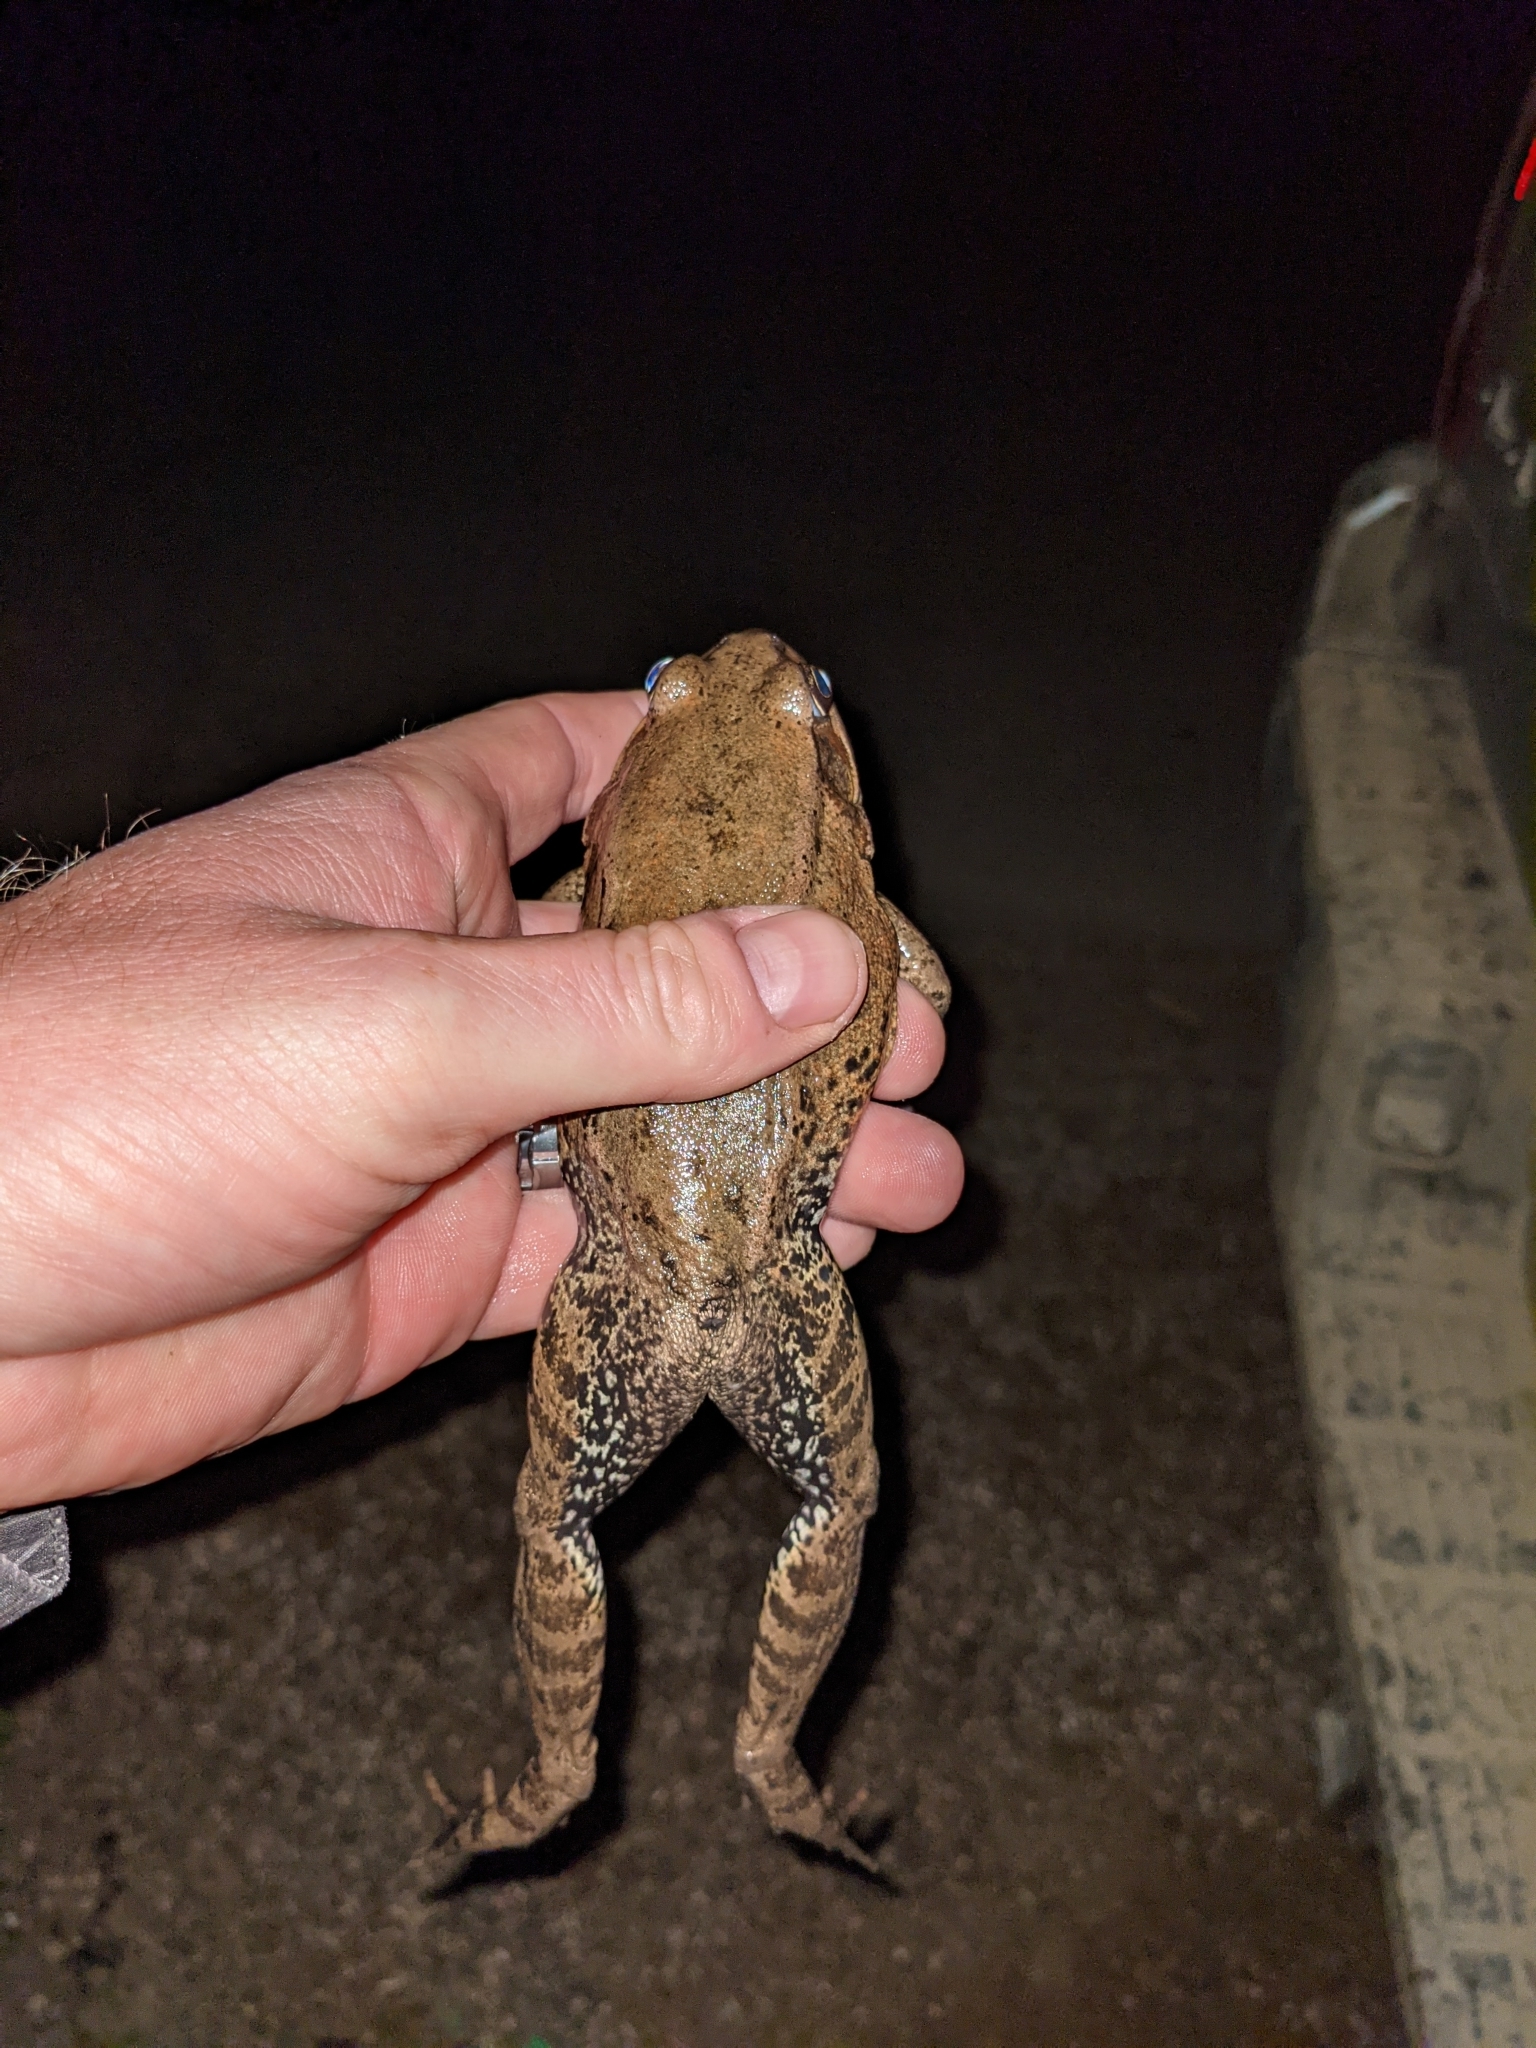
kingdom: Animalia
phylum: Chordata
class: Amphibia
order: Anura
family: Ranidae
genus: Rana
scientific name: Rana draytonii
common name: California red-legged frog
